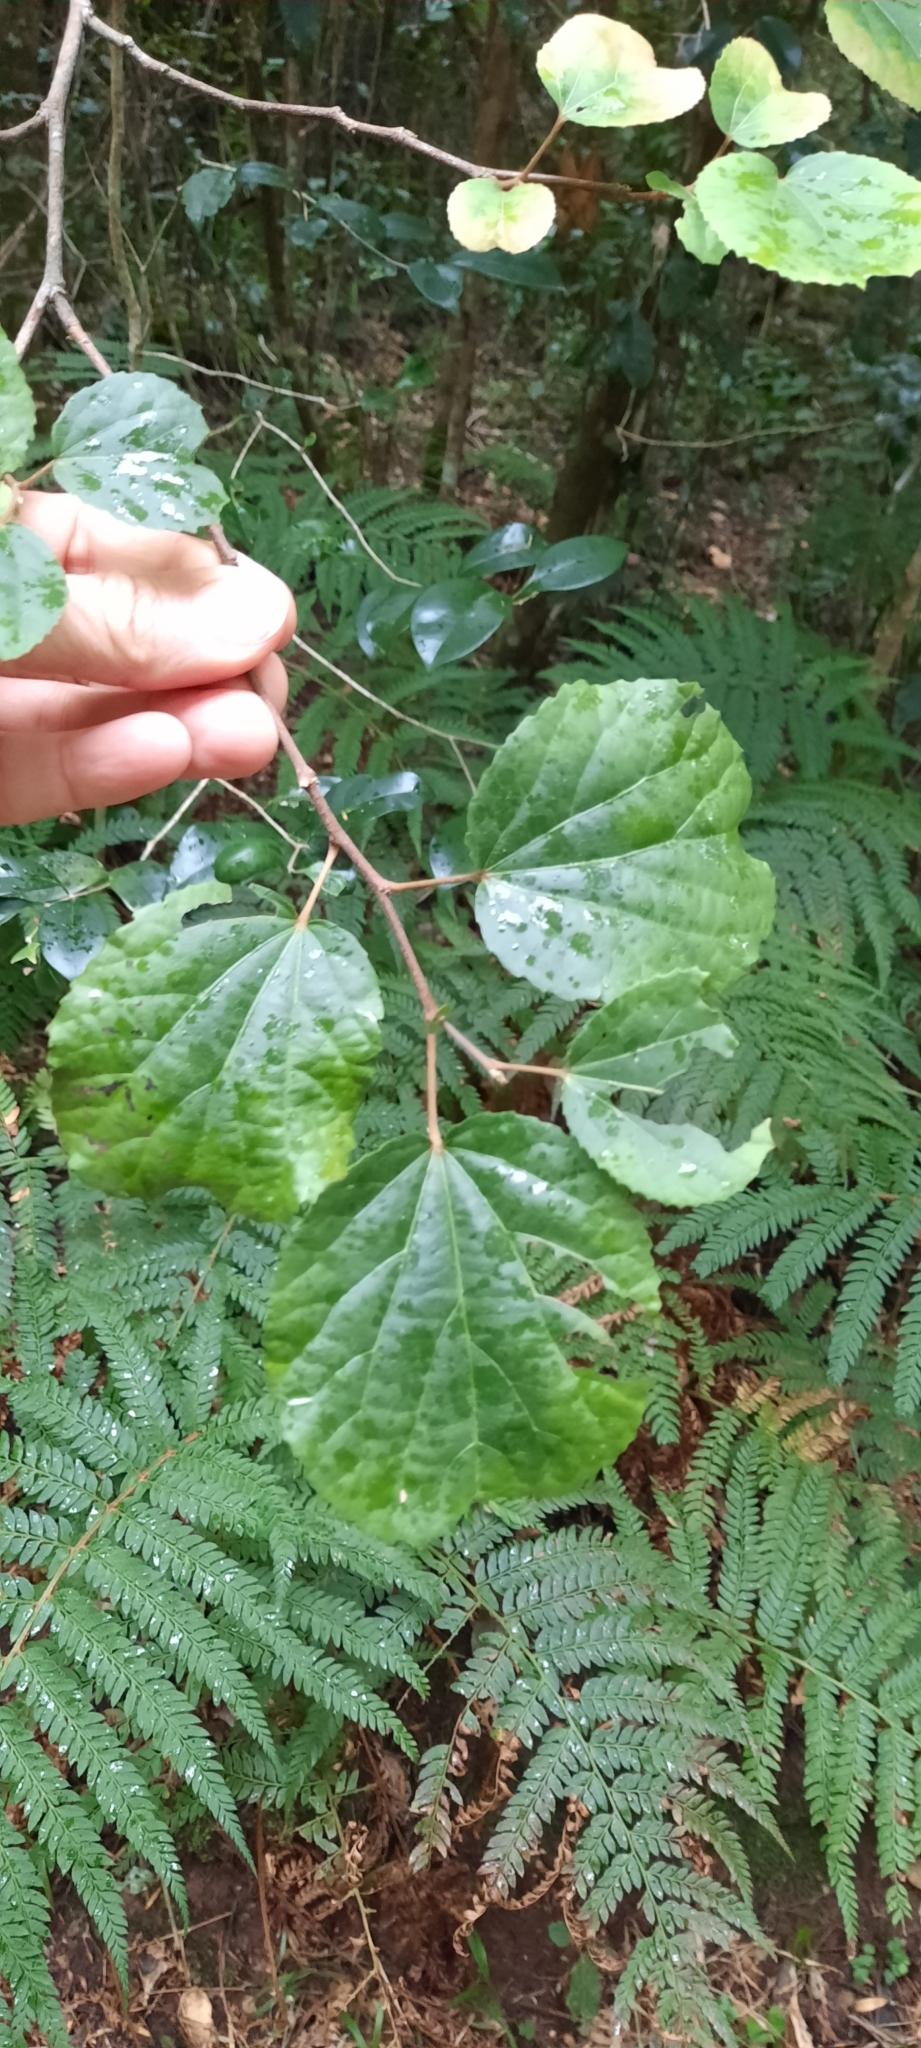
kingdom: Plantae
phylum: Tracheophyta
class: Magnoliopsida
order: Malpighiales
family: Salicaceae
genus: Trimeria
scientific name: Trimeria grandifolia
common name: Wild mulberry
